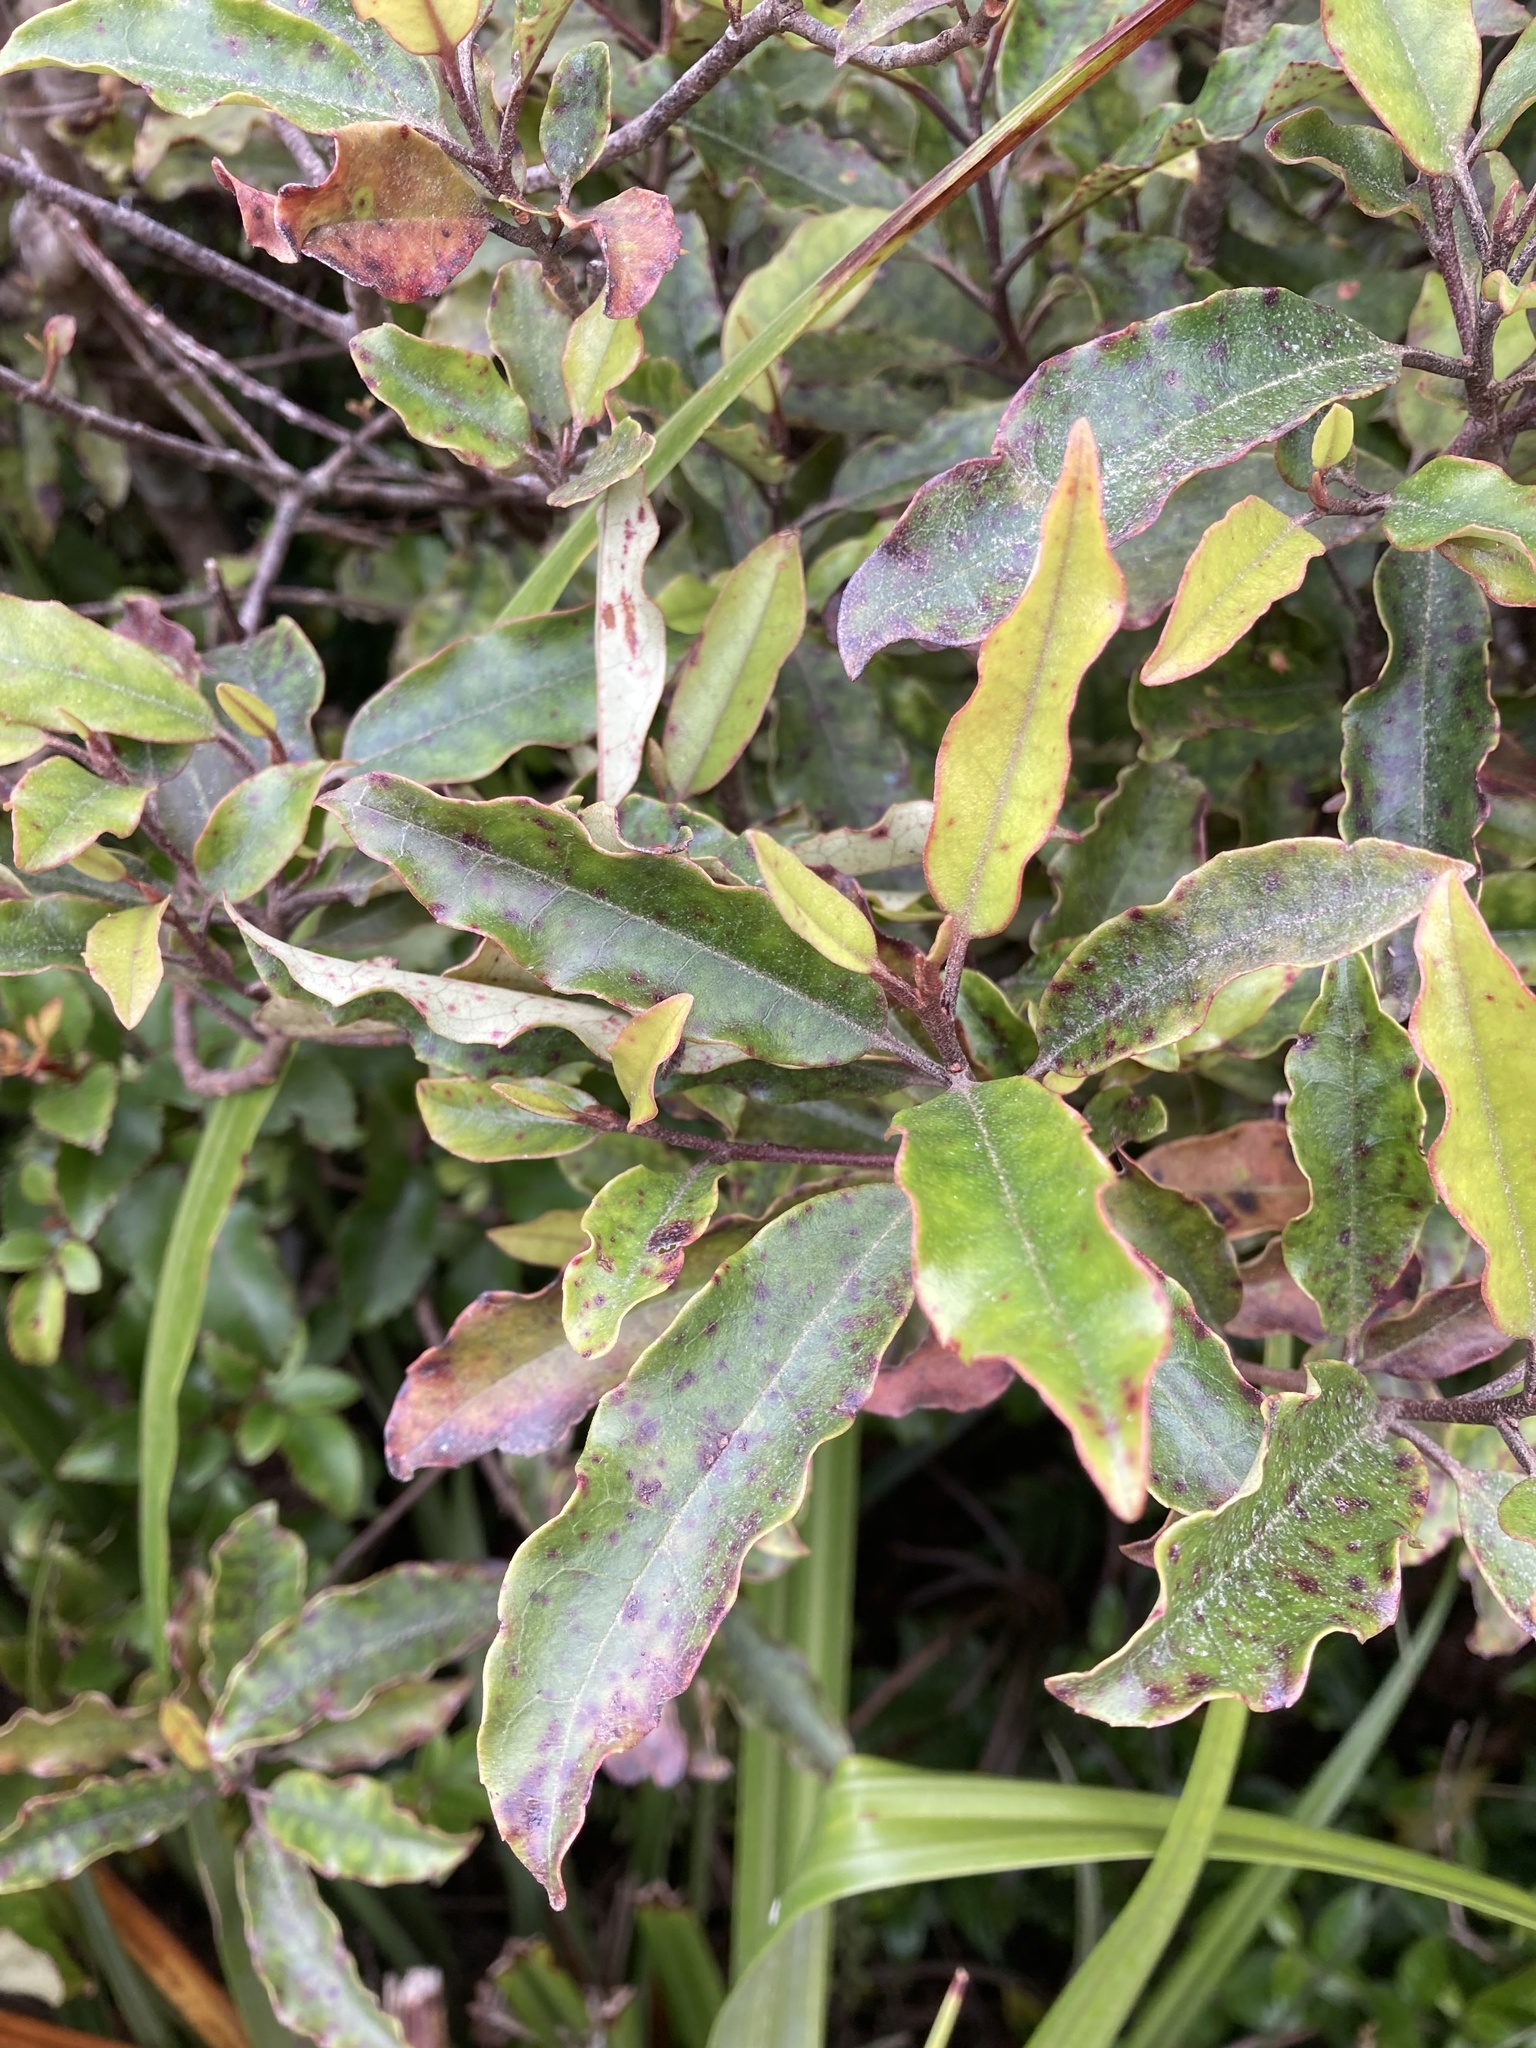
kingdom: Plantae
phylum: Tracheophyta
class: Magnoliopsida
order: Paracryphiales
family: Paracryphiaceae
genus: Quintinia
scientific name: Quintinia serrata
